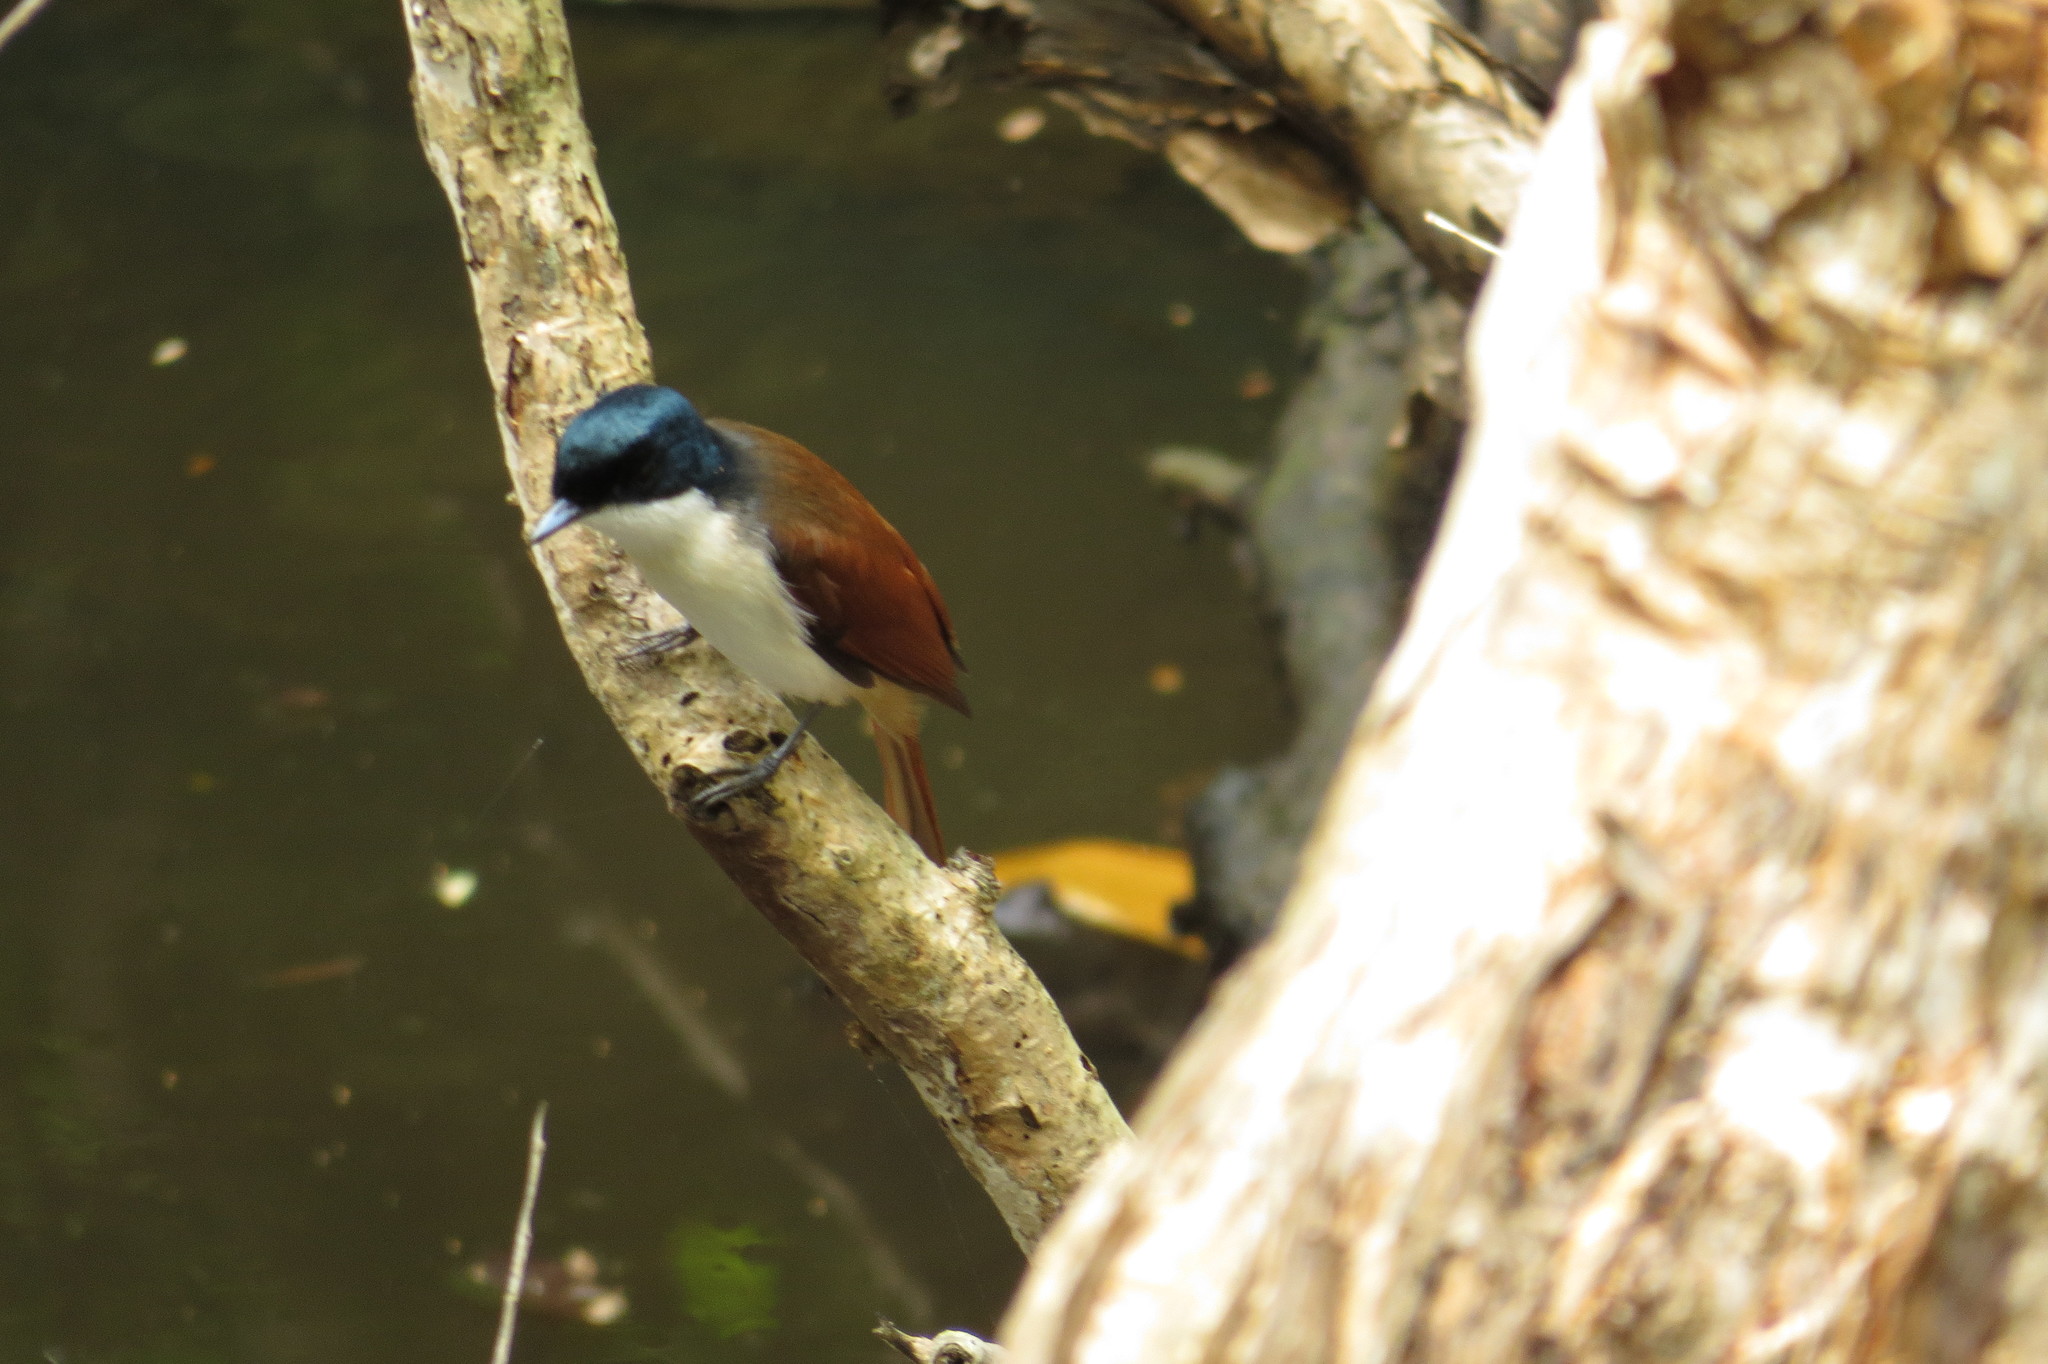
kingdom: Animalia
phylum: Chordata
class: Aves
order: Passeriformes
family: Monarchidae
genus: Myiagra
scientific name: Myiagra alecto
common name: Shining flycatcher
